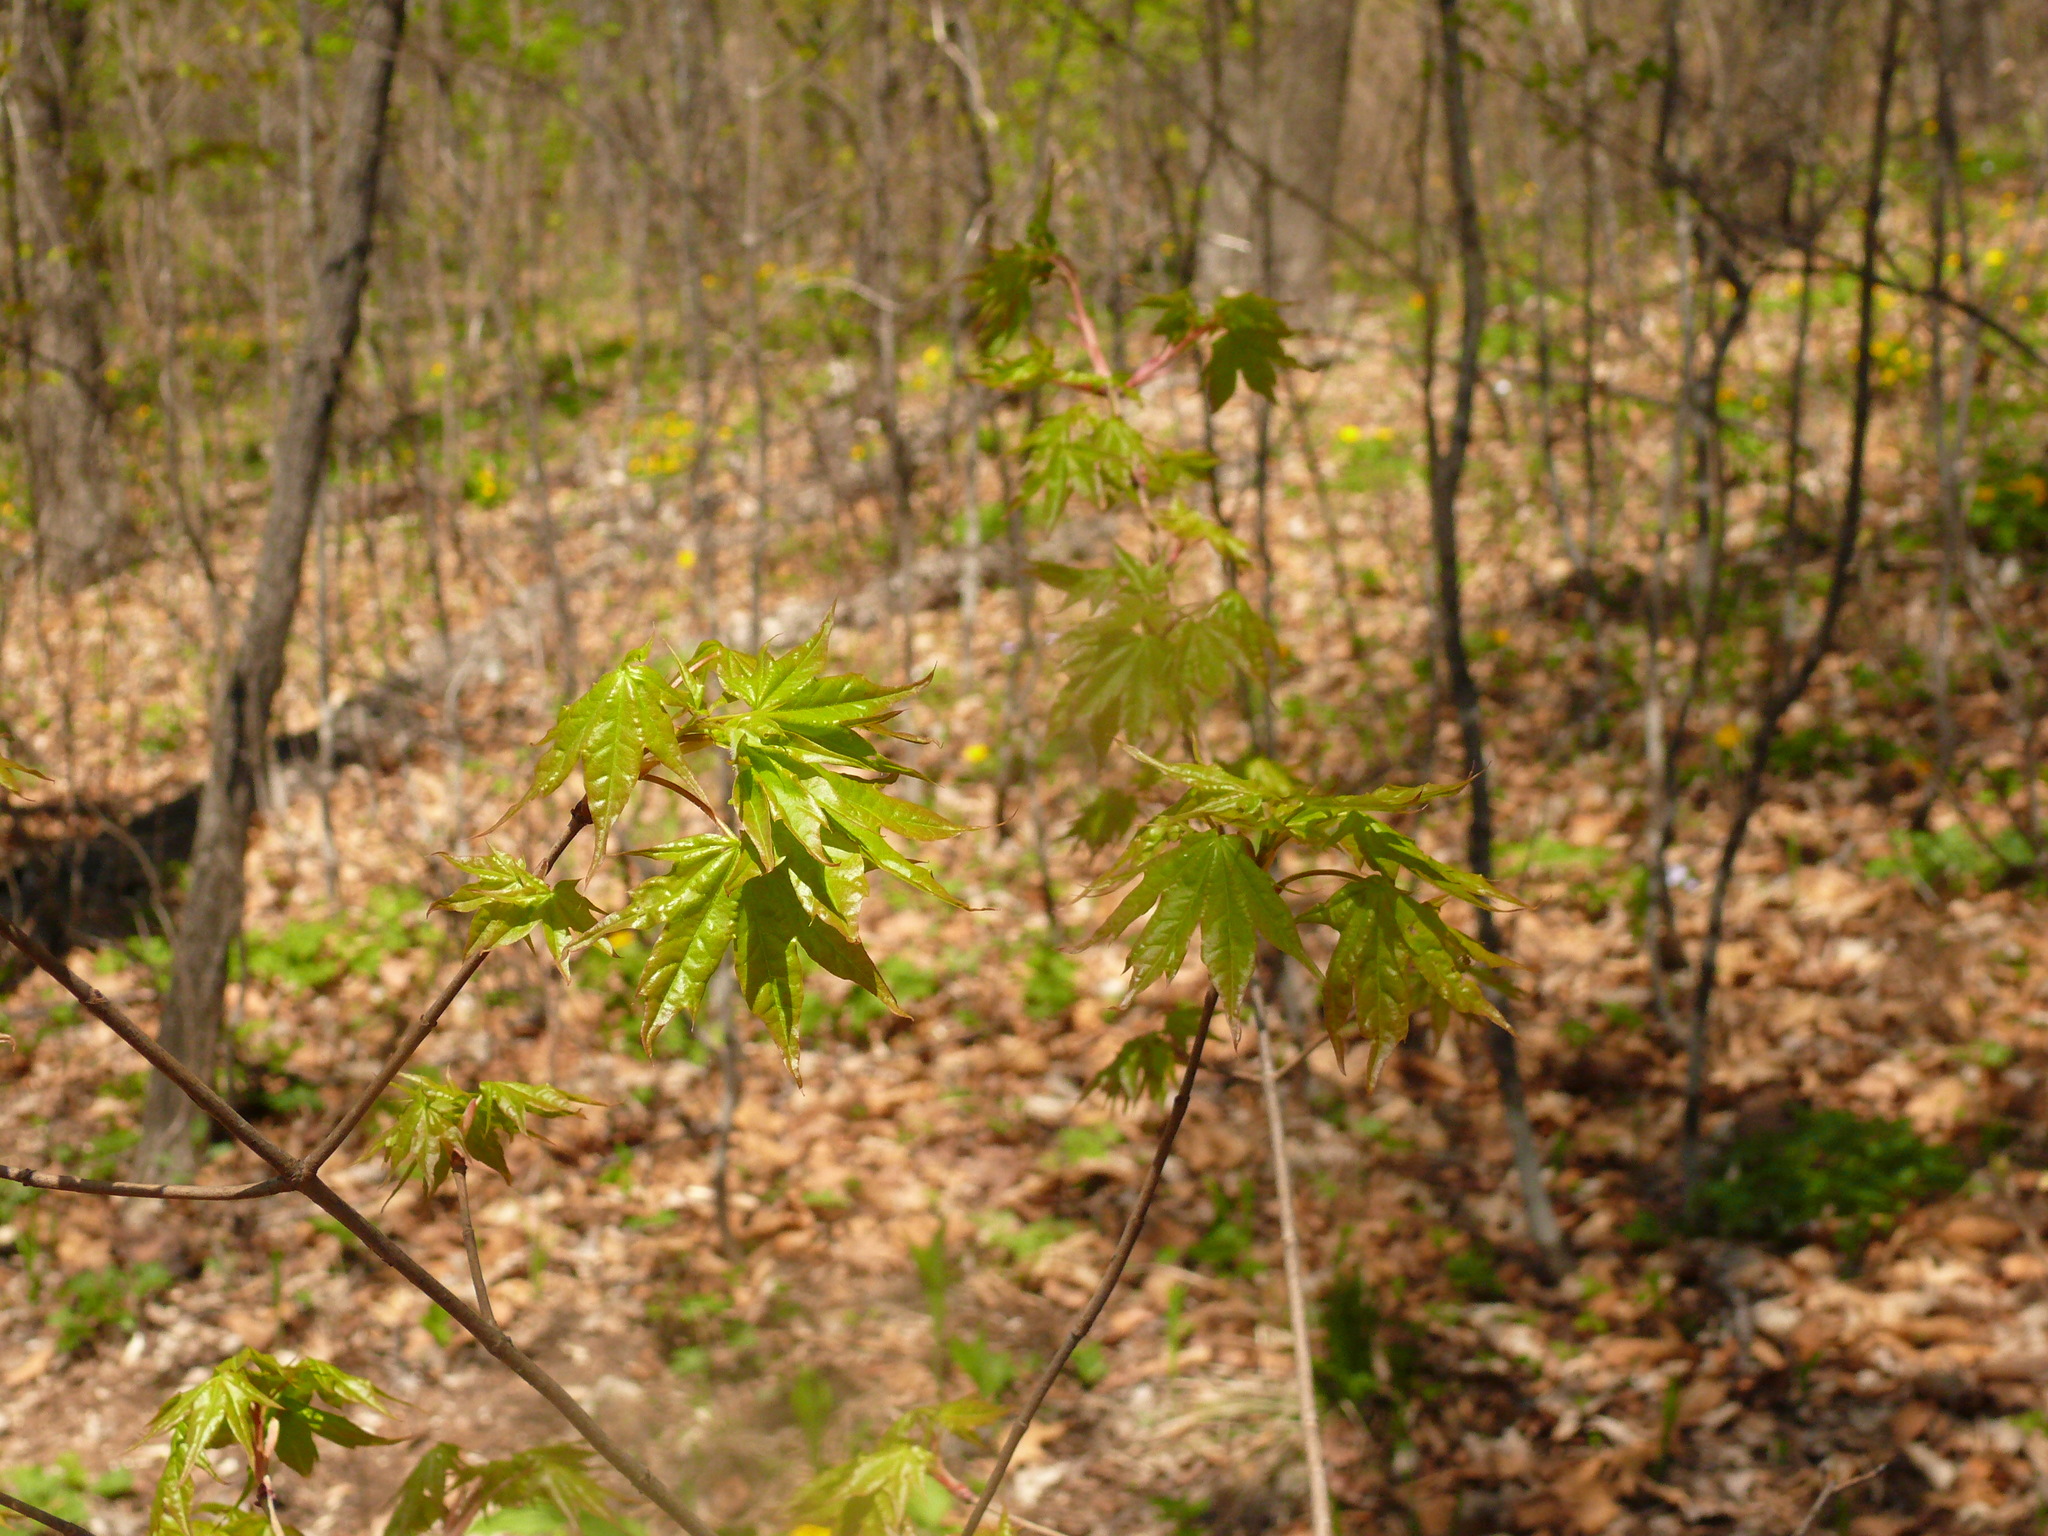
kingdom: Plantae
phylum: Tracheophyta
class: Magnoliopsida
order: Sapindales
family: Sapindaceae
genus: Acer
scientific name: Acer pictum
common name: The painted maple
